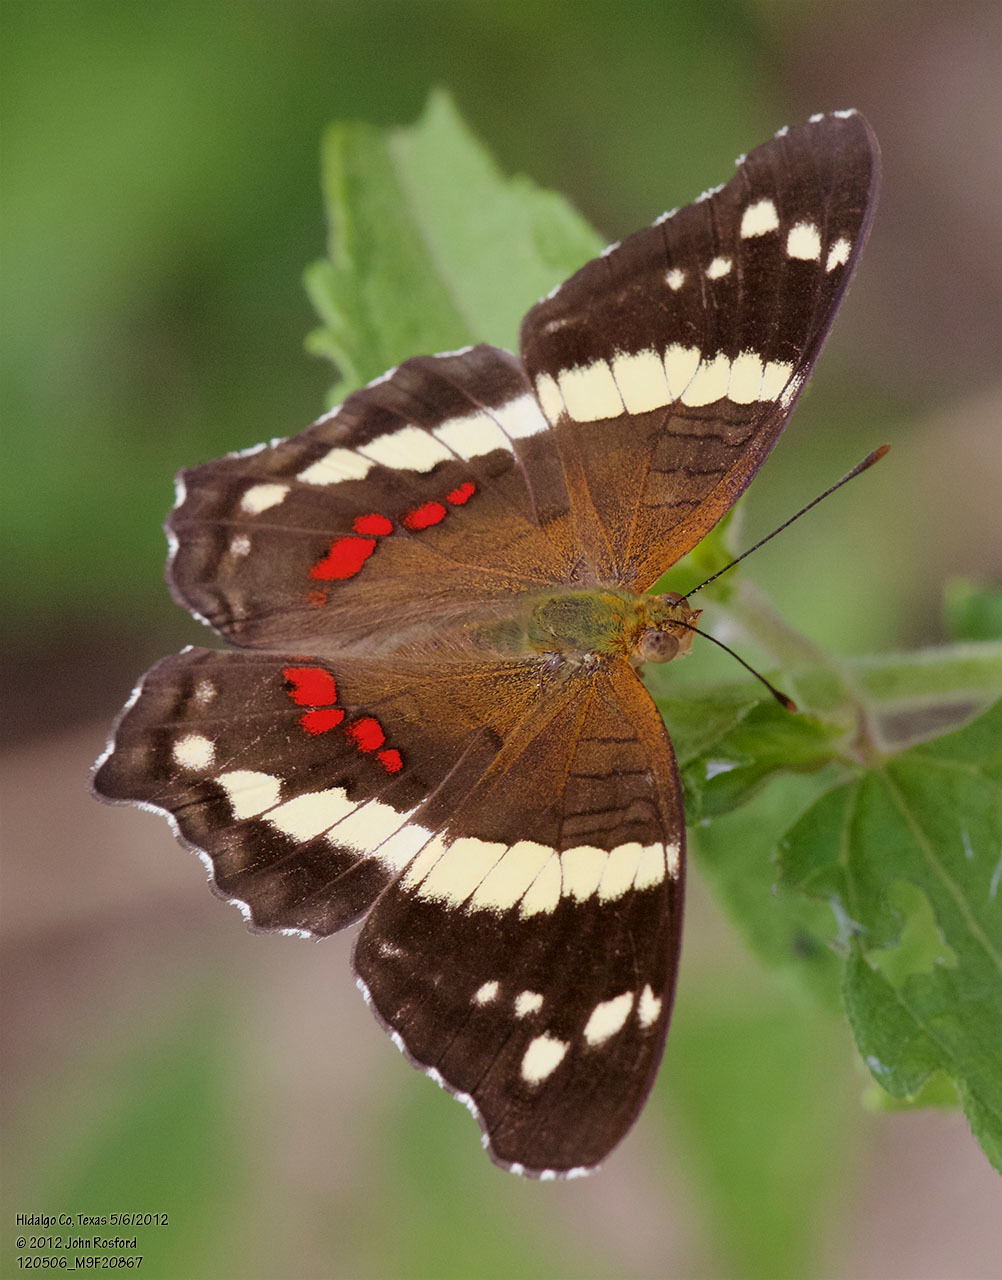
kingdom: Animalia
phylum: Arthropoda
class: Insecta
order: Lepidoptera
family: Nymphalidae
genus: Anartia
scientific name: Anartia fatima
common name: Banded peacock
